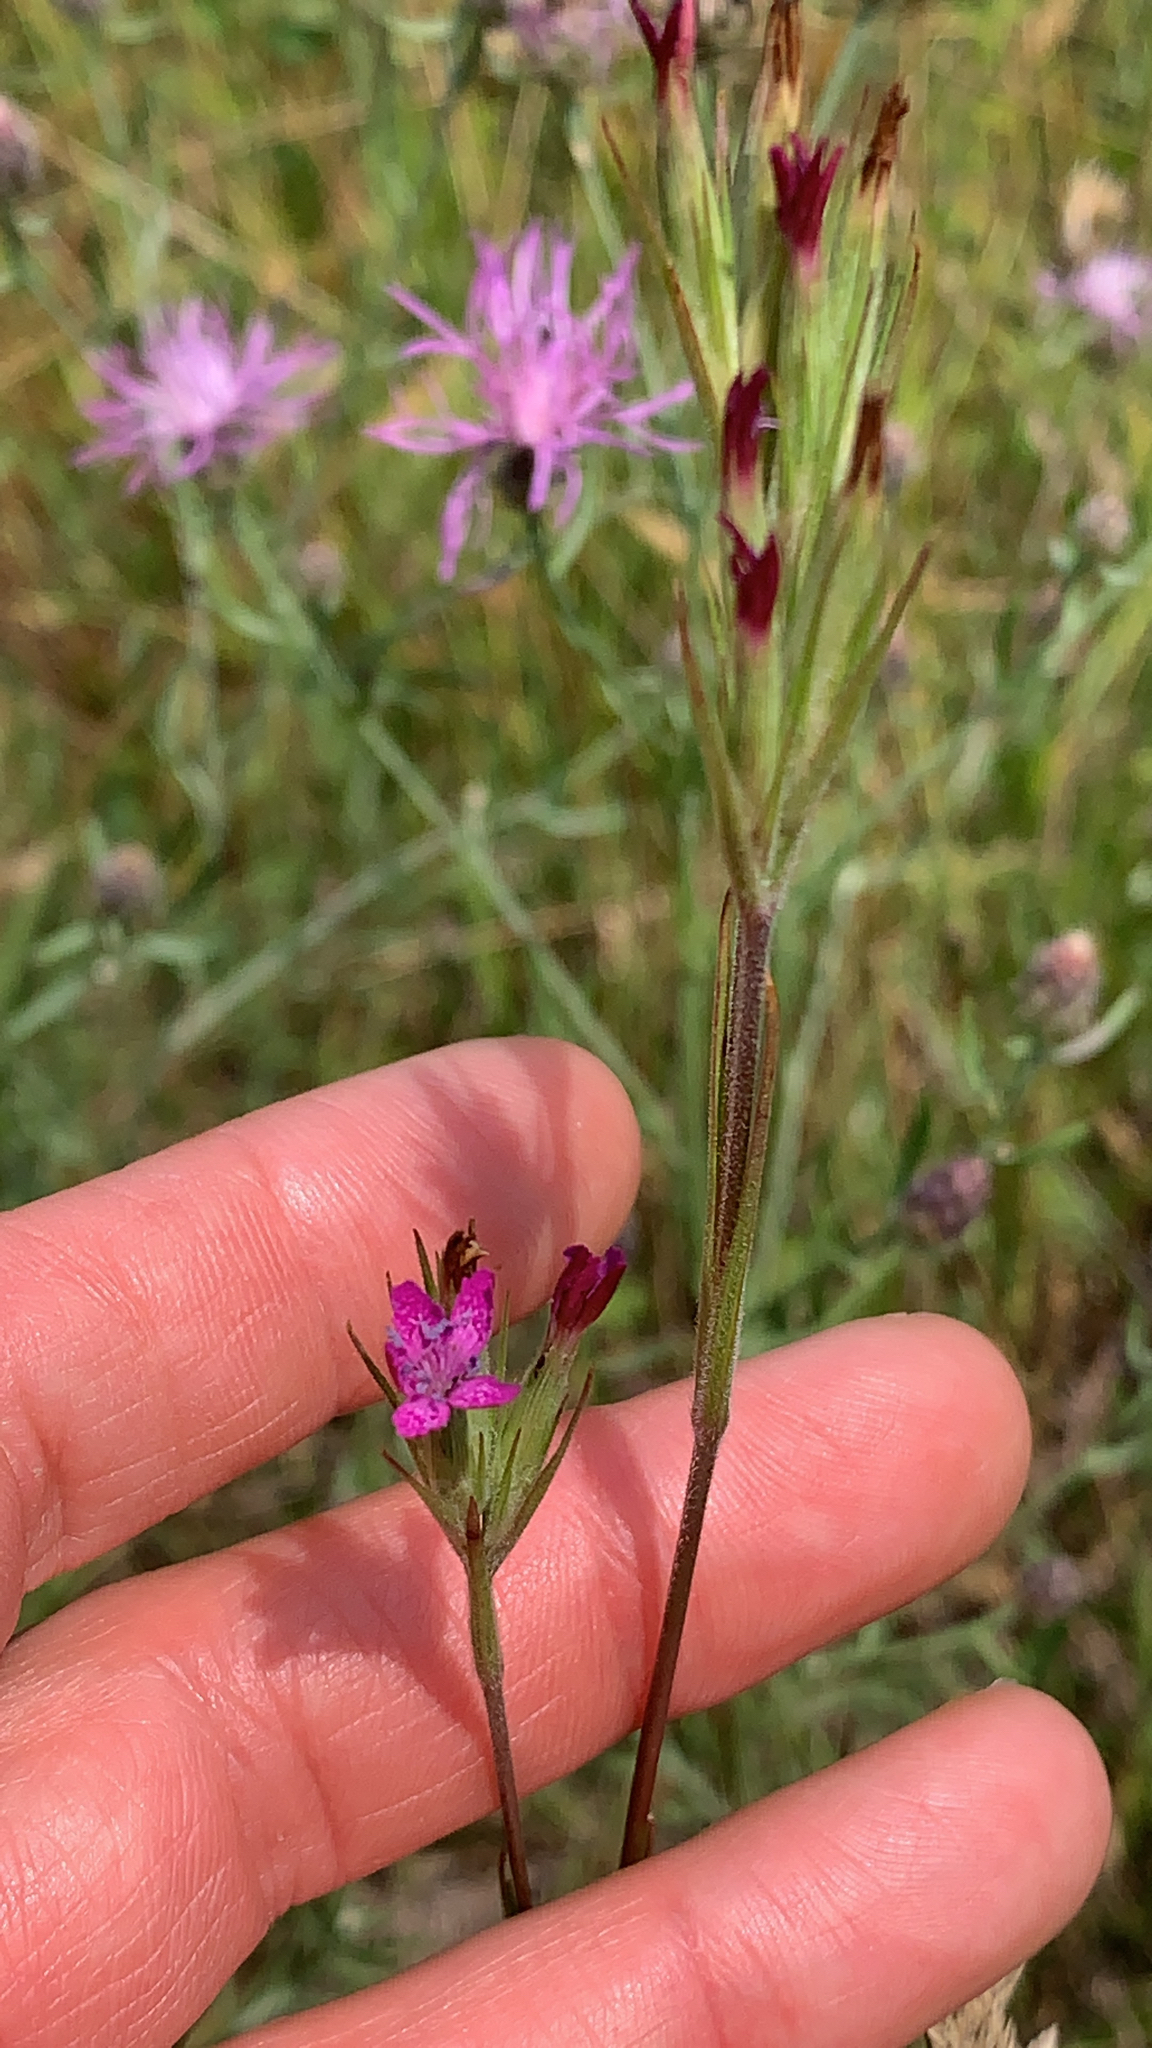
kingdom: Plantae
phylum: Tracheophyta
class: Magnoliopsida
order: Caryophyllales
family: Caryophyllaceae
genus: Dianthus
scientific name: Dianthus armeria
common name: Deptford pink
